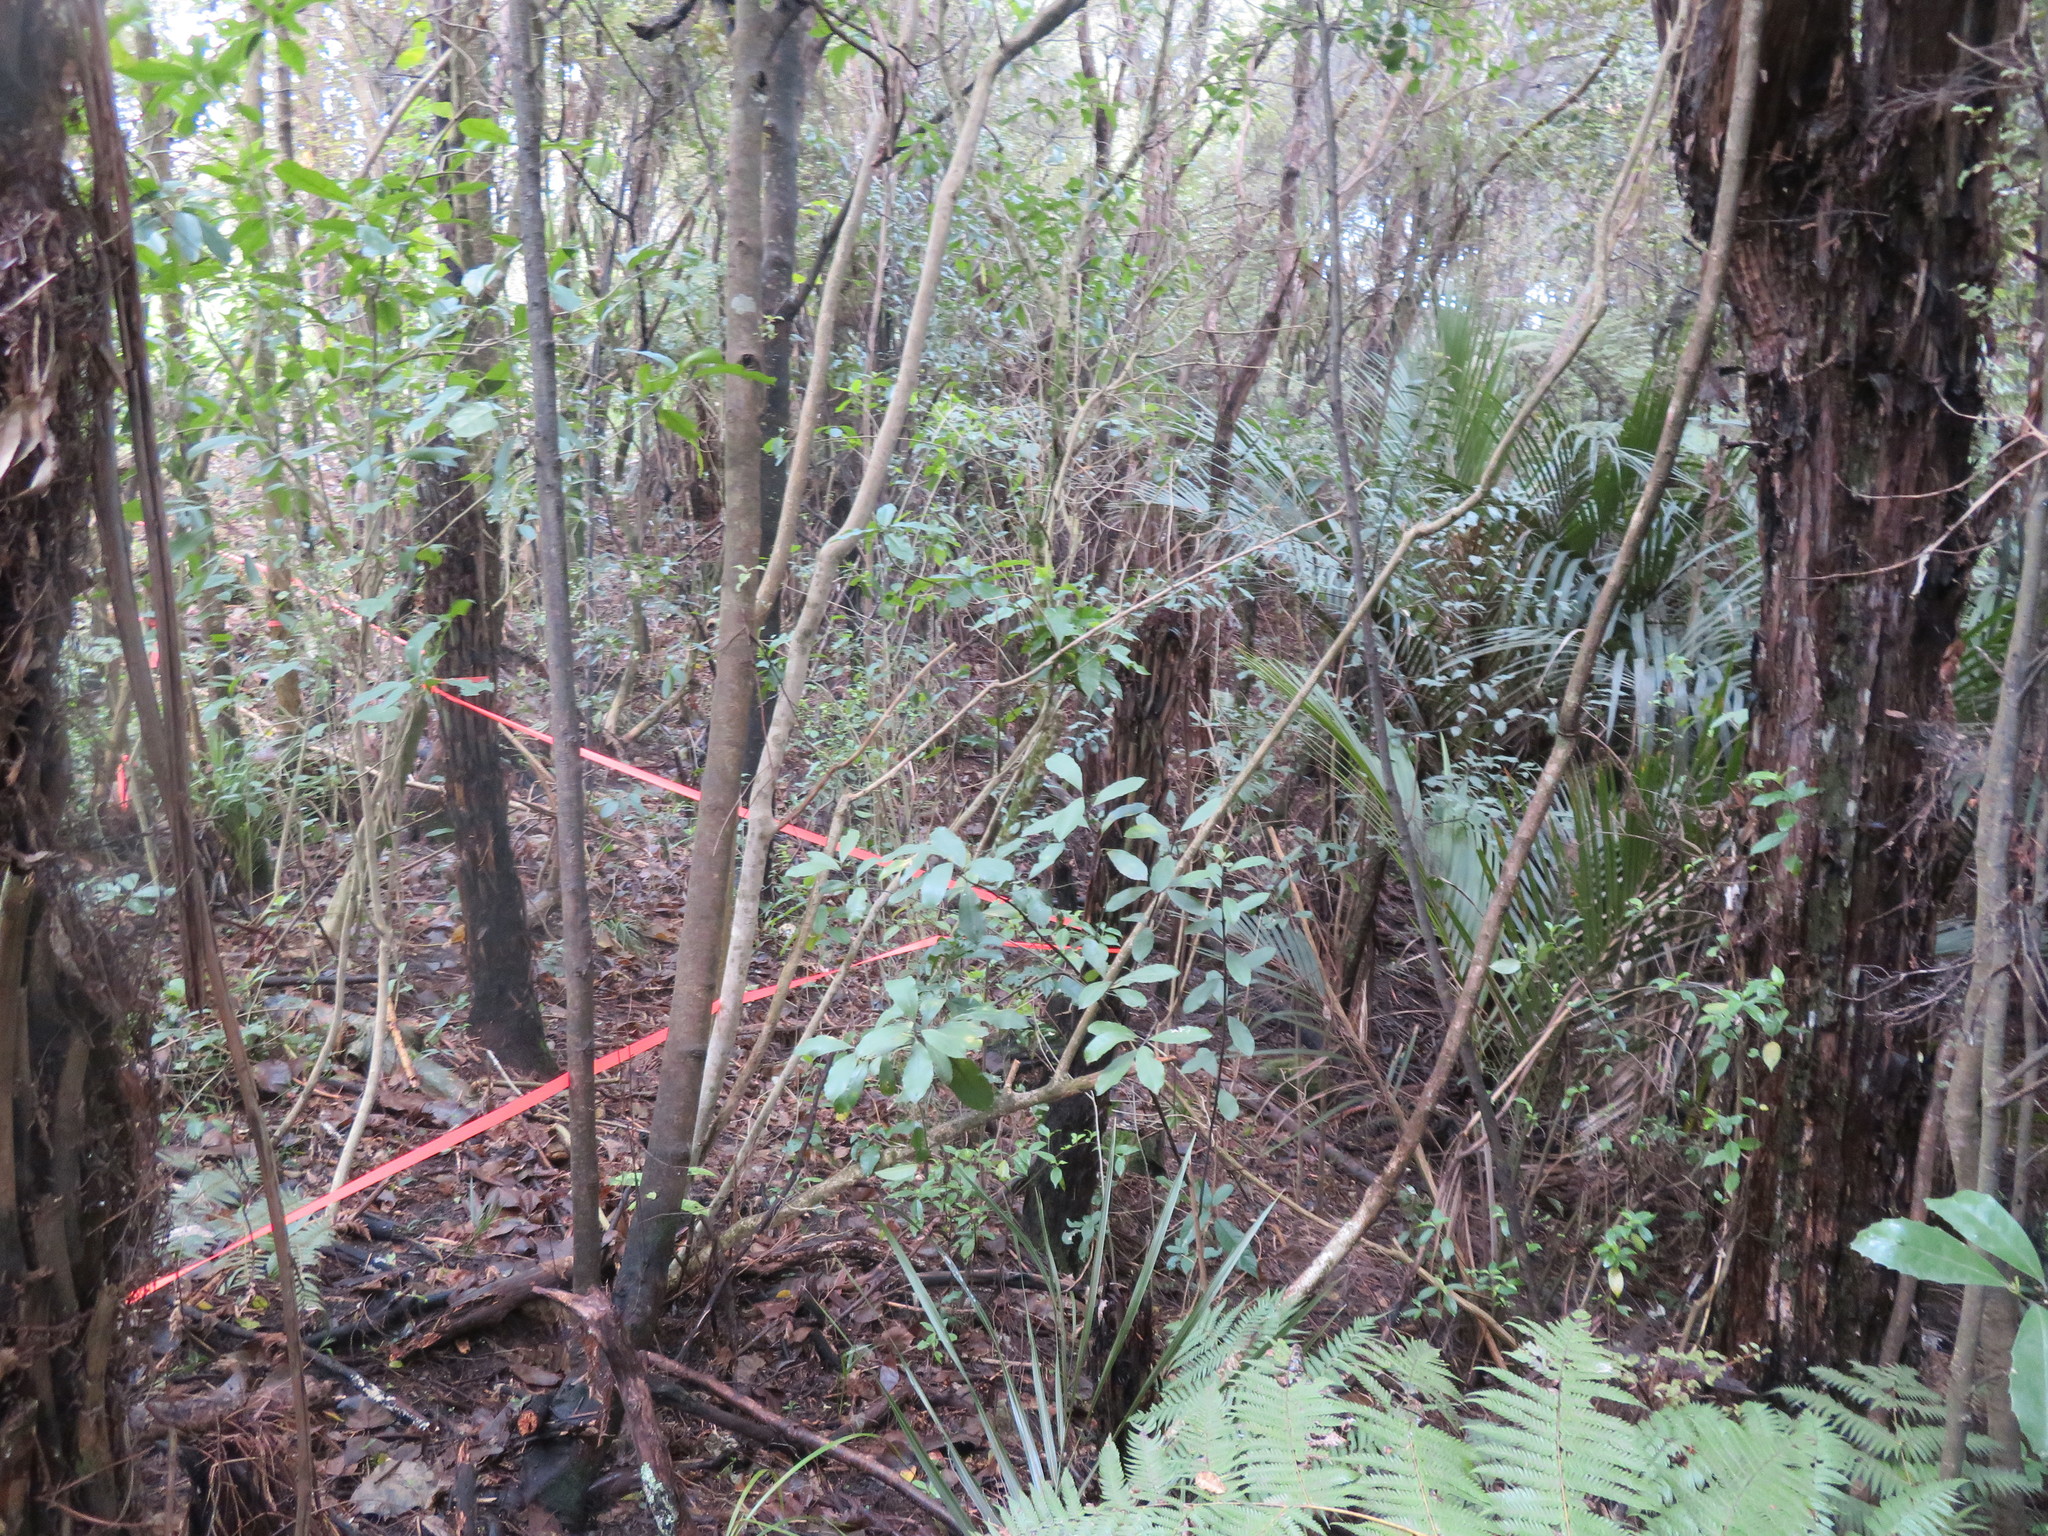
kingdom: Plantae
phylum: Tracheophyta
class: Magnoliopsida
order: Laurales
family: Monimiaceae
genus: Hedycarya
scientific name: Hedycarya arborea
